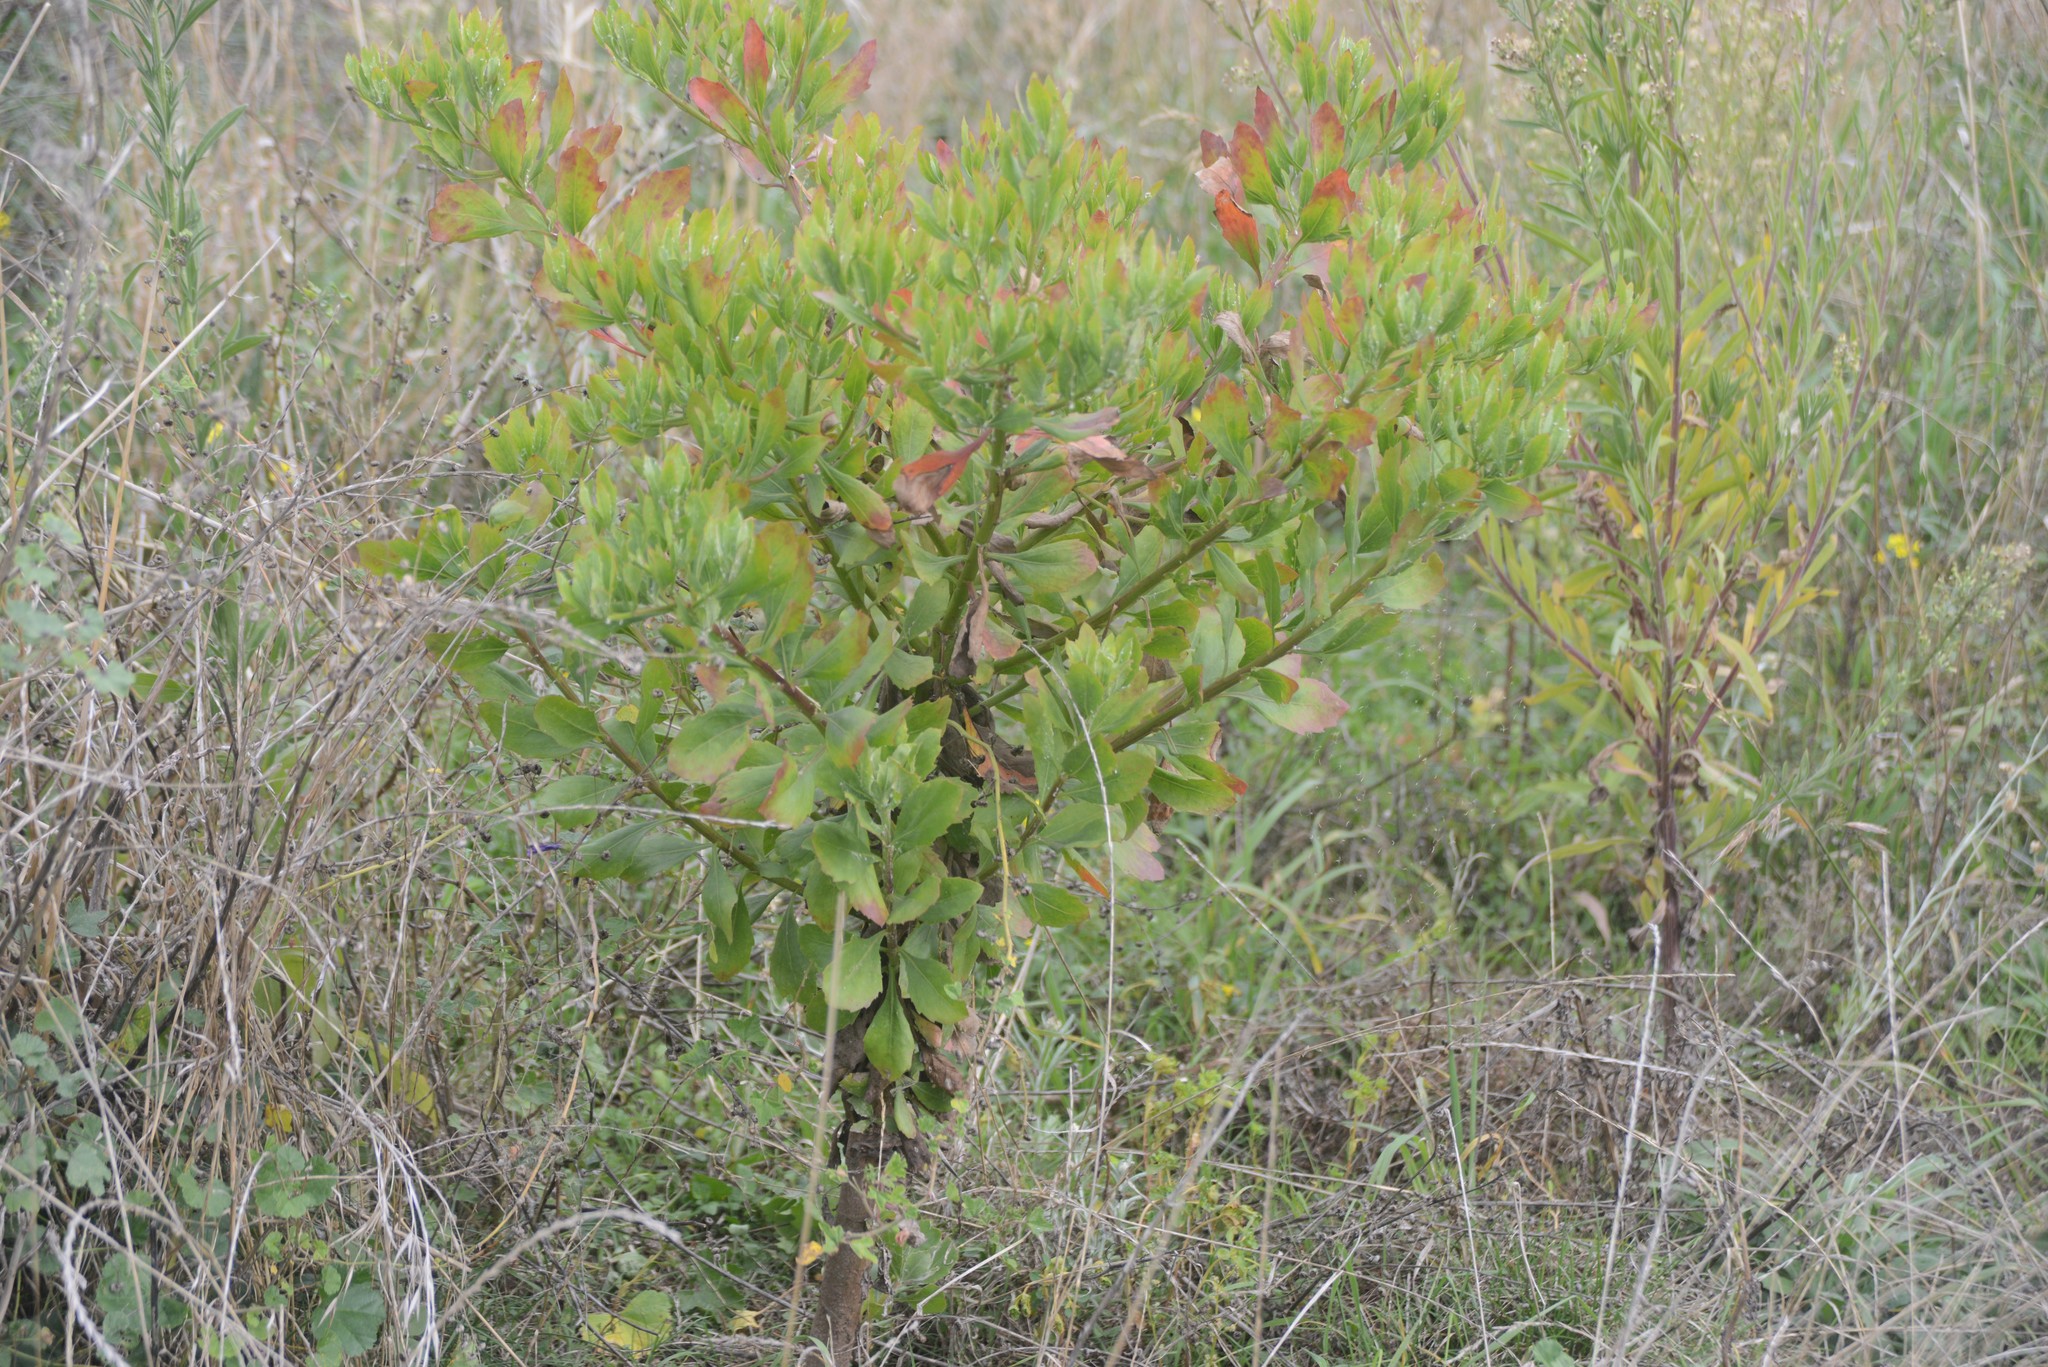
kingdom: Plantae
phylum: Tracheophyta
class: Magnoliopsida
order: Asterales
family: Asteraceae
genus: Osteospermum
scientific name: Osteospermum moniliferum
